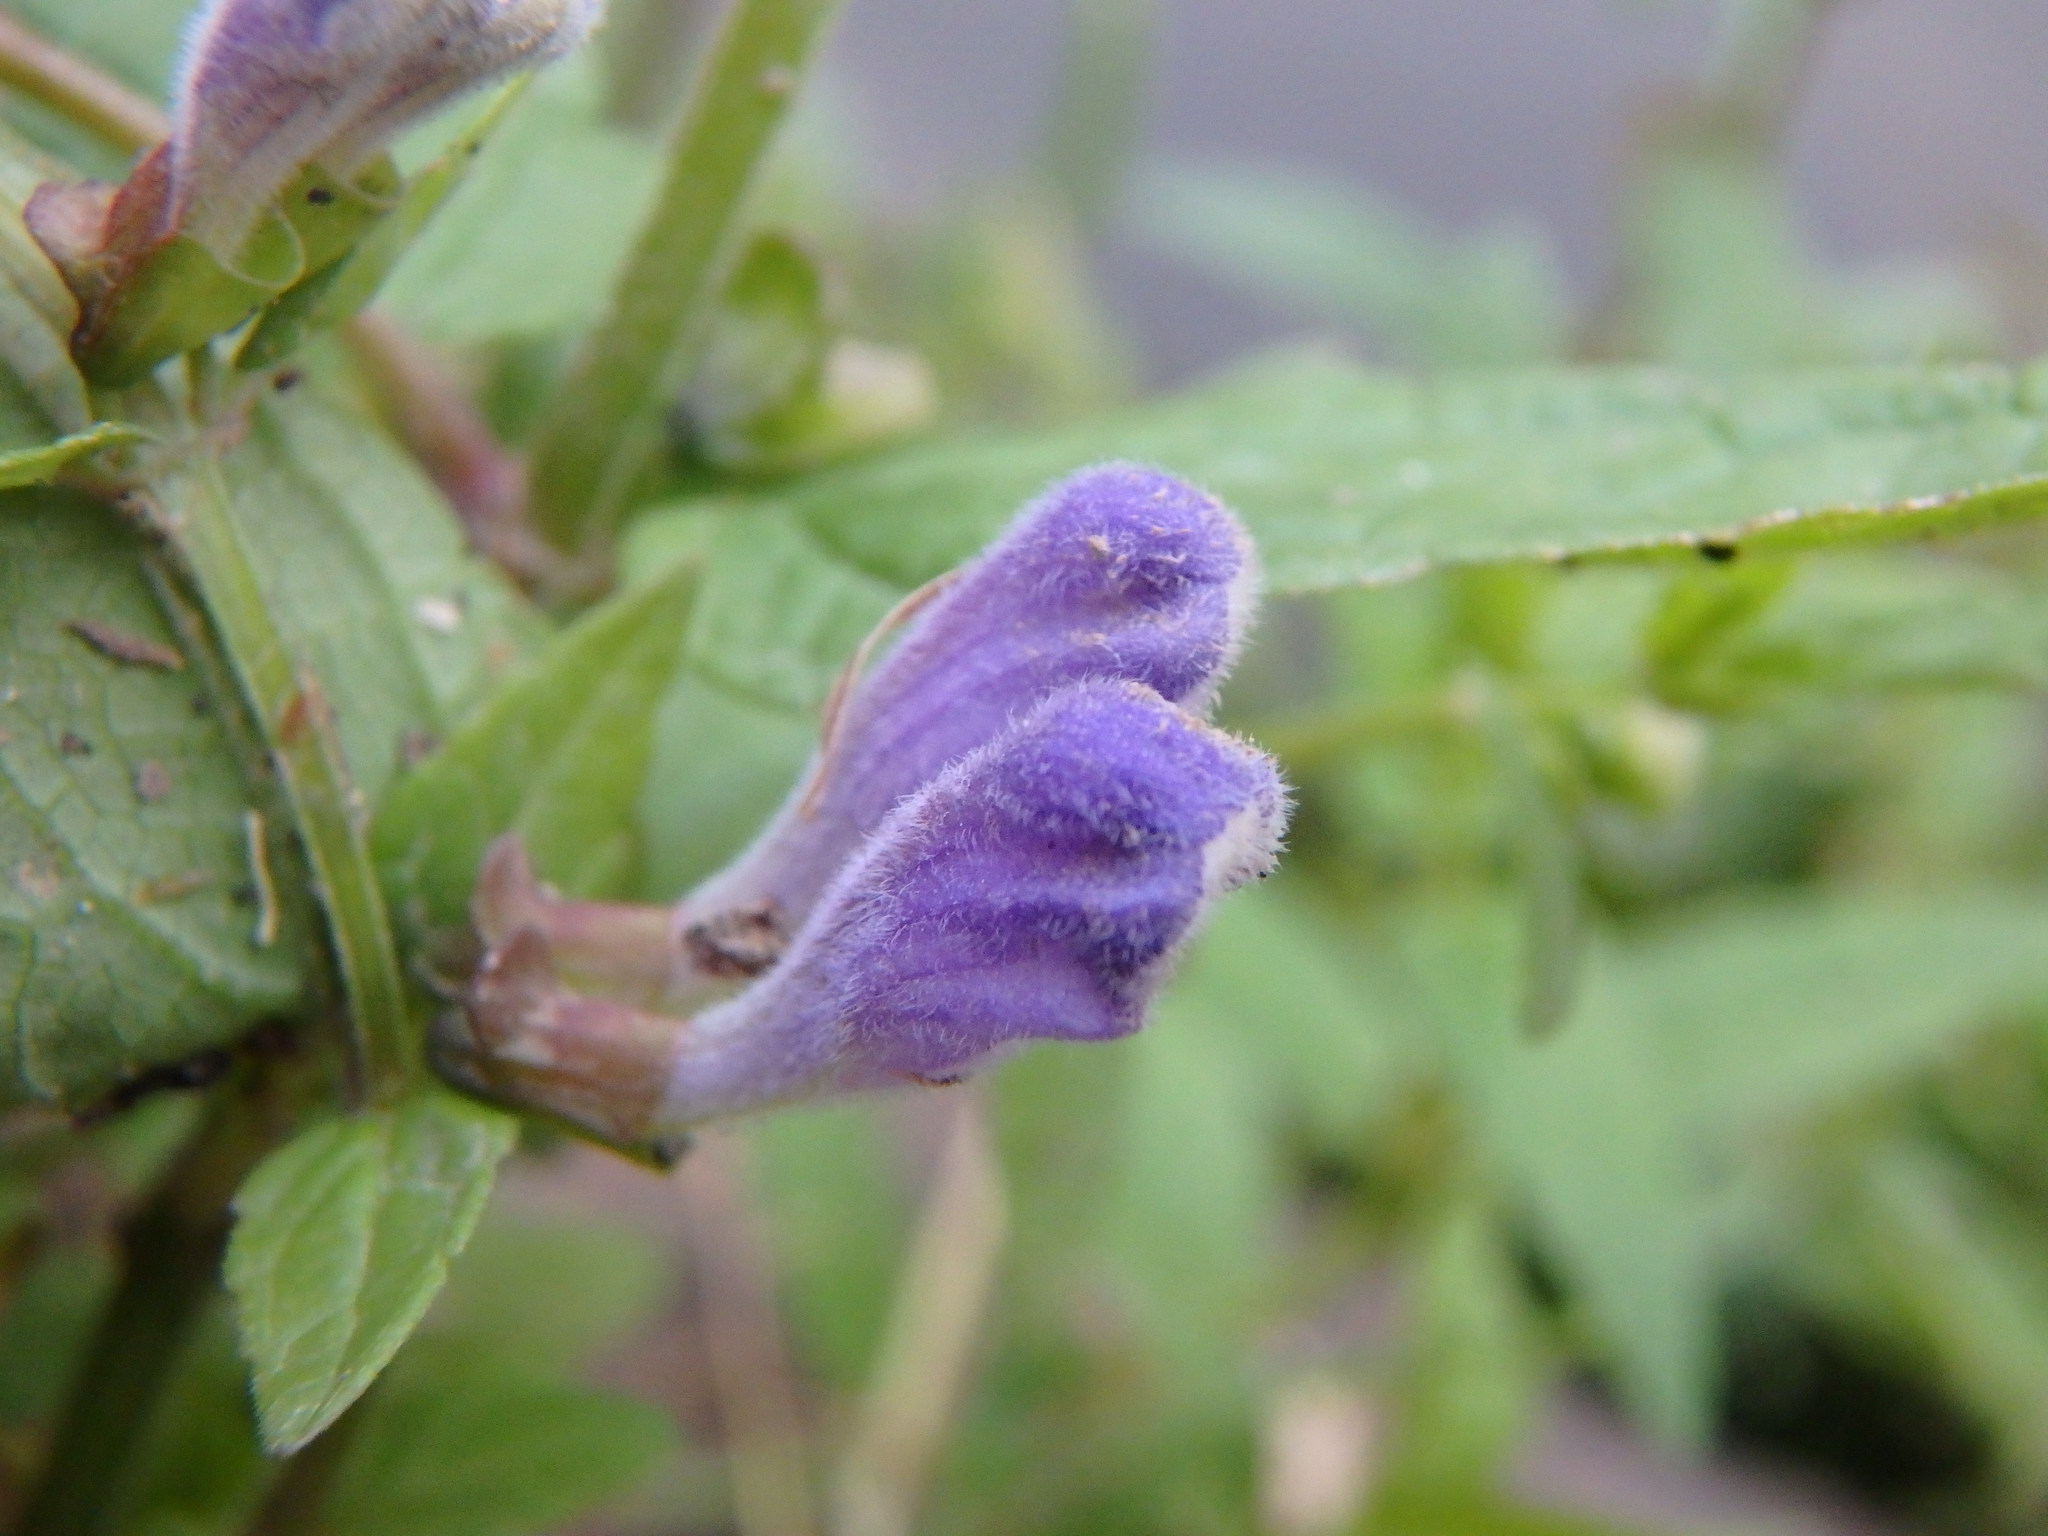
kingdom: Plantae
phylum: Tracheophyta
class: Magnoliopsida
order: Lamiales
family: Lamiaceae
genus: Scutellaria
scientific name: Scutellaria galericulata
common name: Skullcap
